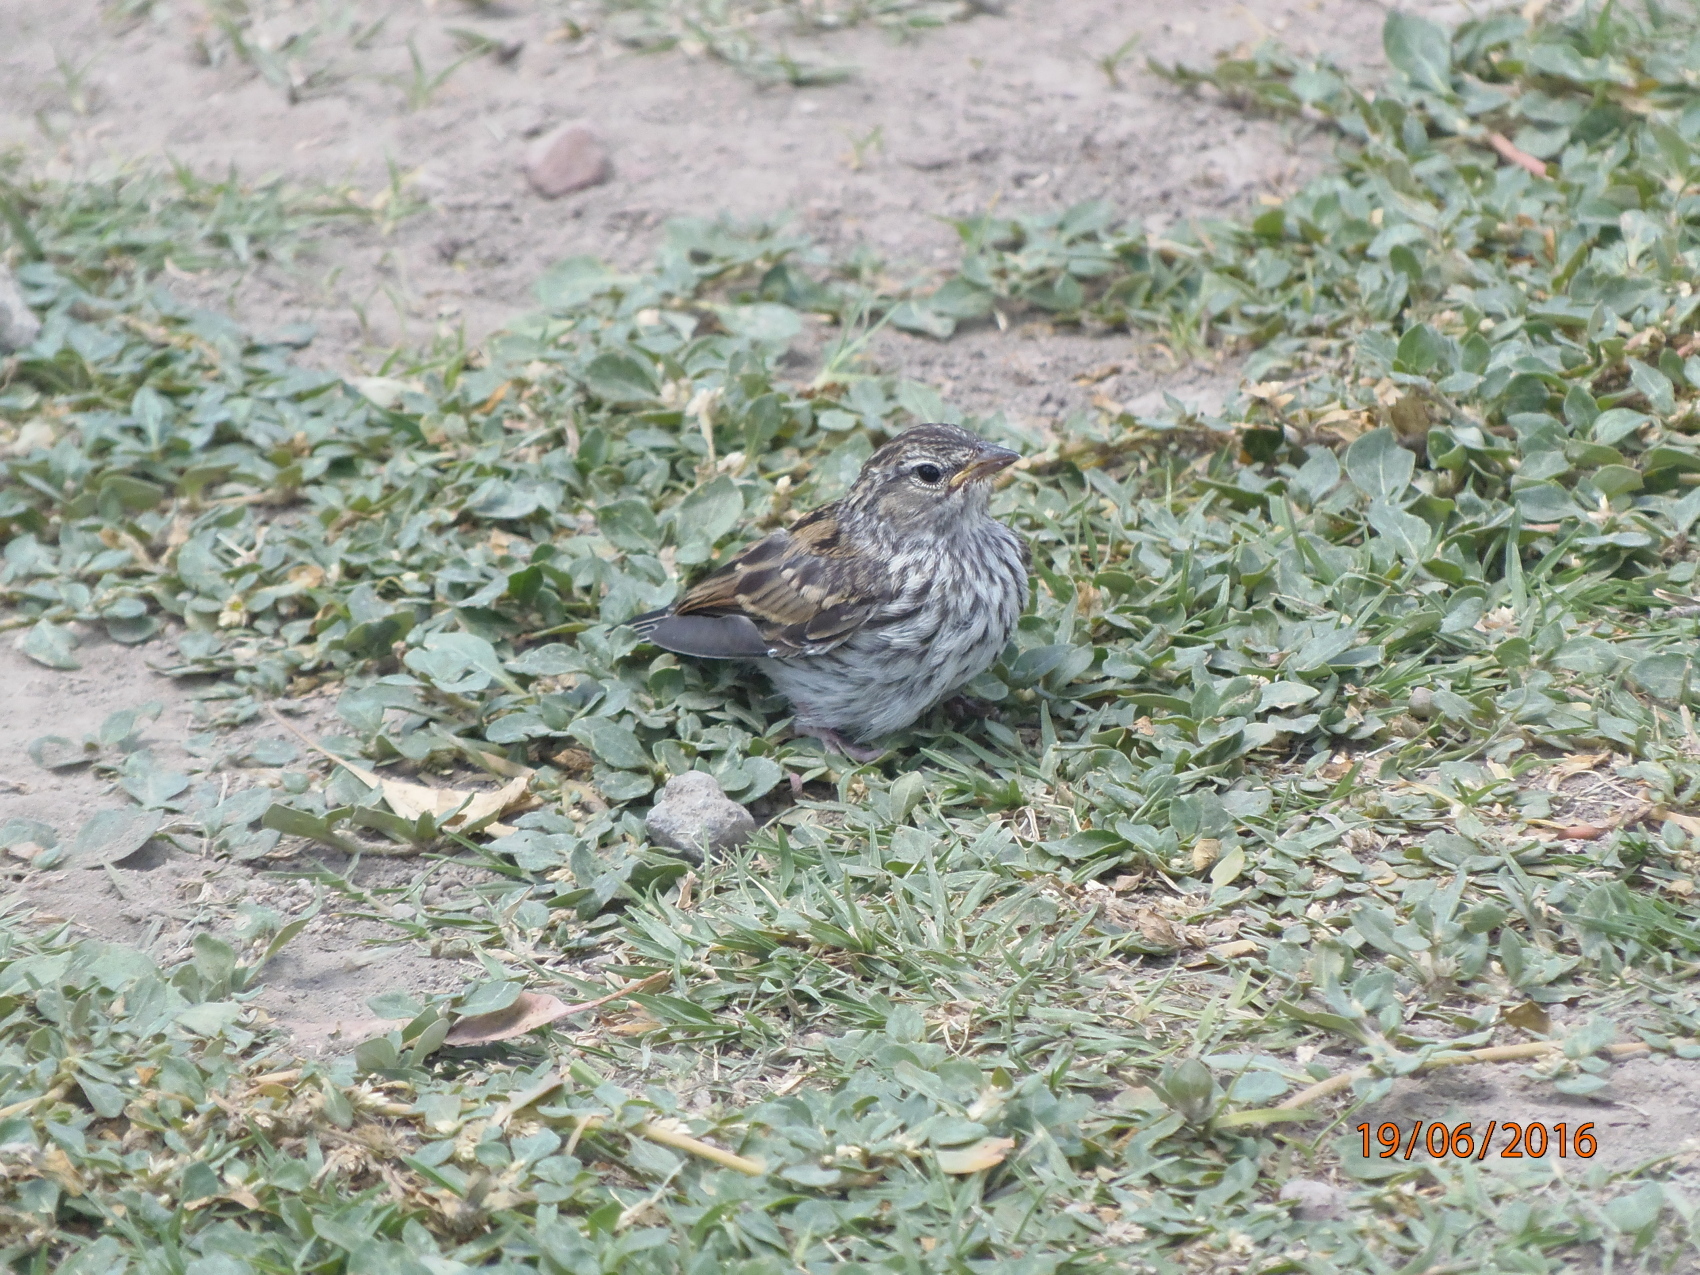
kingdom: Animalia
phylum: Chordata
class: Aves
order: Passeriformes
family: Passerellidae
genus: Spizella
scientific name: Spizella passerina
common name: Chipping sparrow
